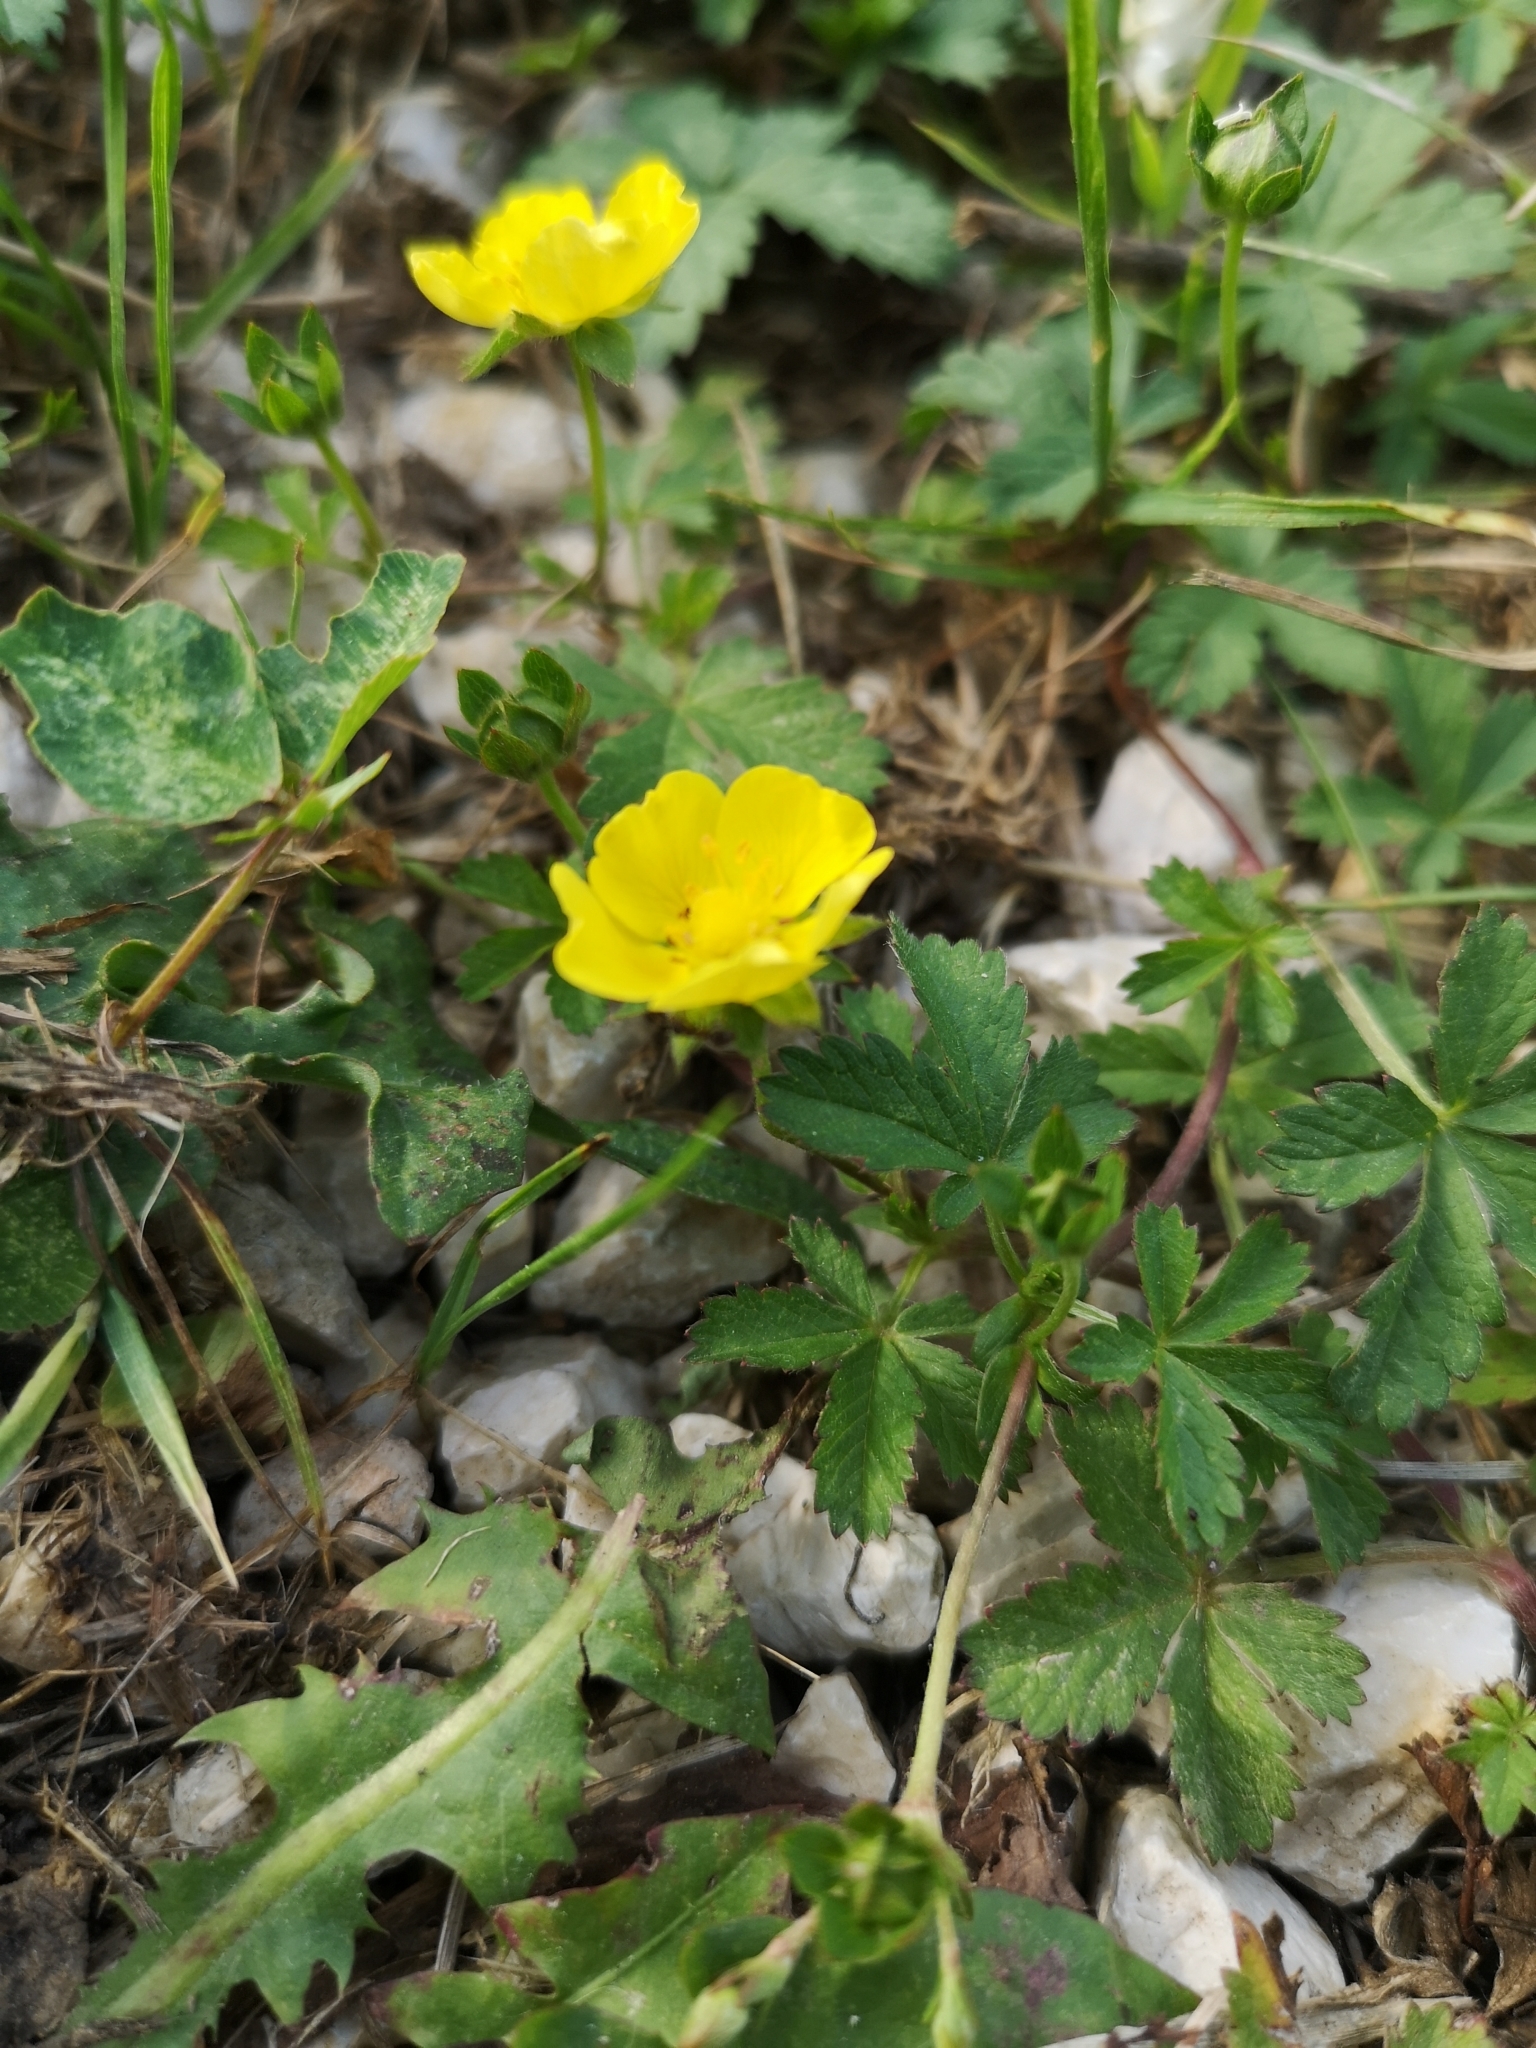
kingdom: Plantae
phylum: Tracheophyta
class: Magnoliopsida
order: Rosales
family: Rosaceae
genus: Potentilla
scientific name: Potentilla reptans
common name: Creeping cinquefoil
